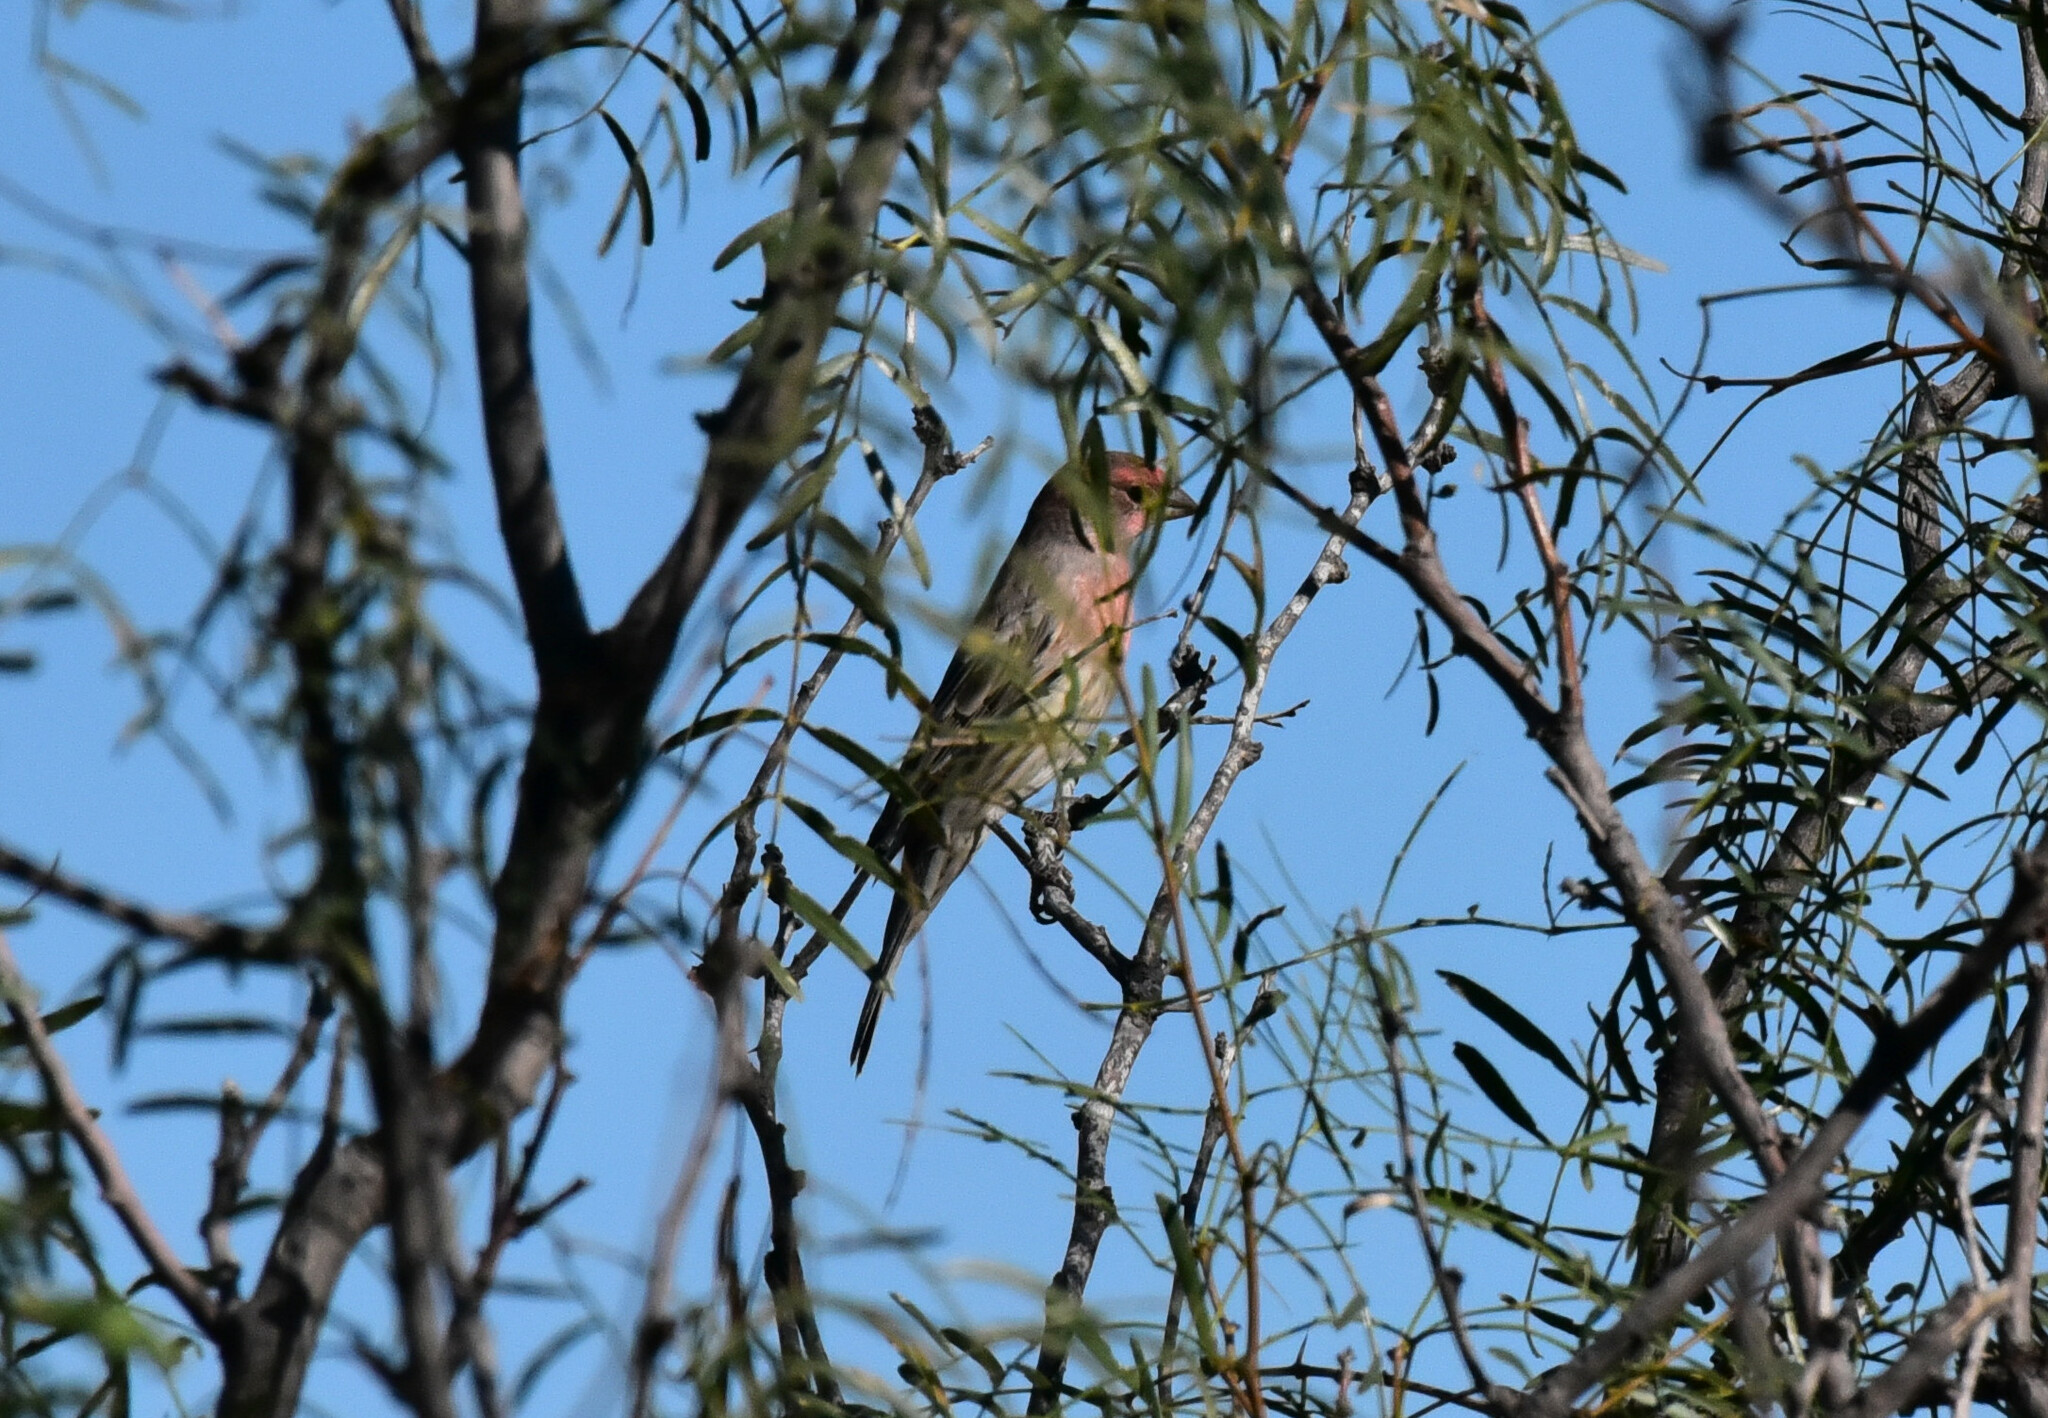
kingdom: Animalia
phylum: Chordata
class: Aves
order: Passeriformes
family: Fringillidae
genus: Haemorhous
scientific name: Haemorhous mexicanus
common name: House finch
